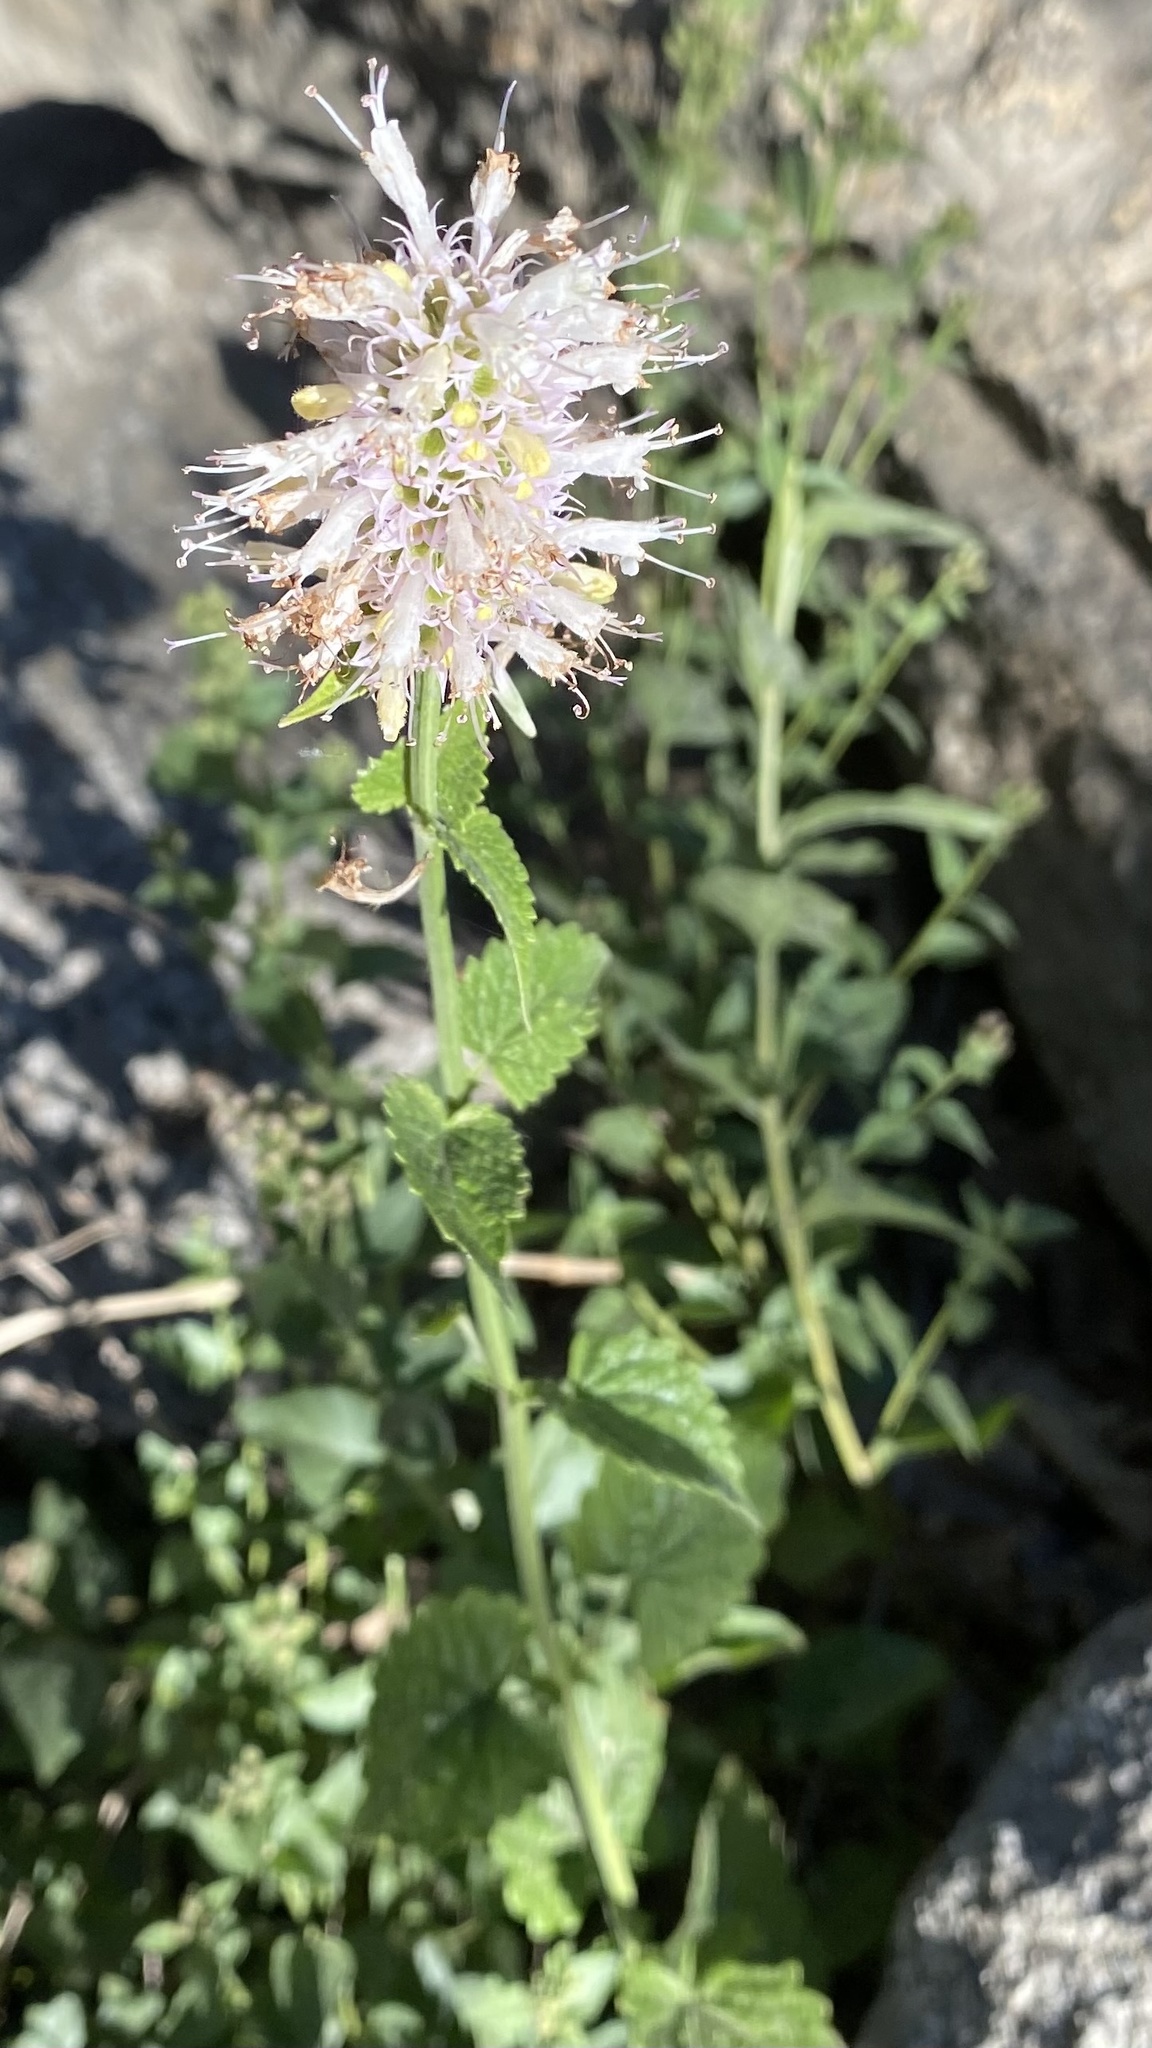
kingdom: Plantae
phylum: Tracheophyta
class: Magnoliopsida
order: Lamiales
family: Lamiaceae
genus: Agastache
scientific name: Agastache urticifolia
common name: Horsemint giant hyssop
